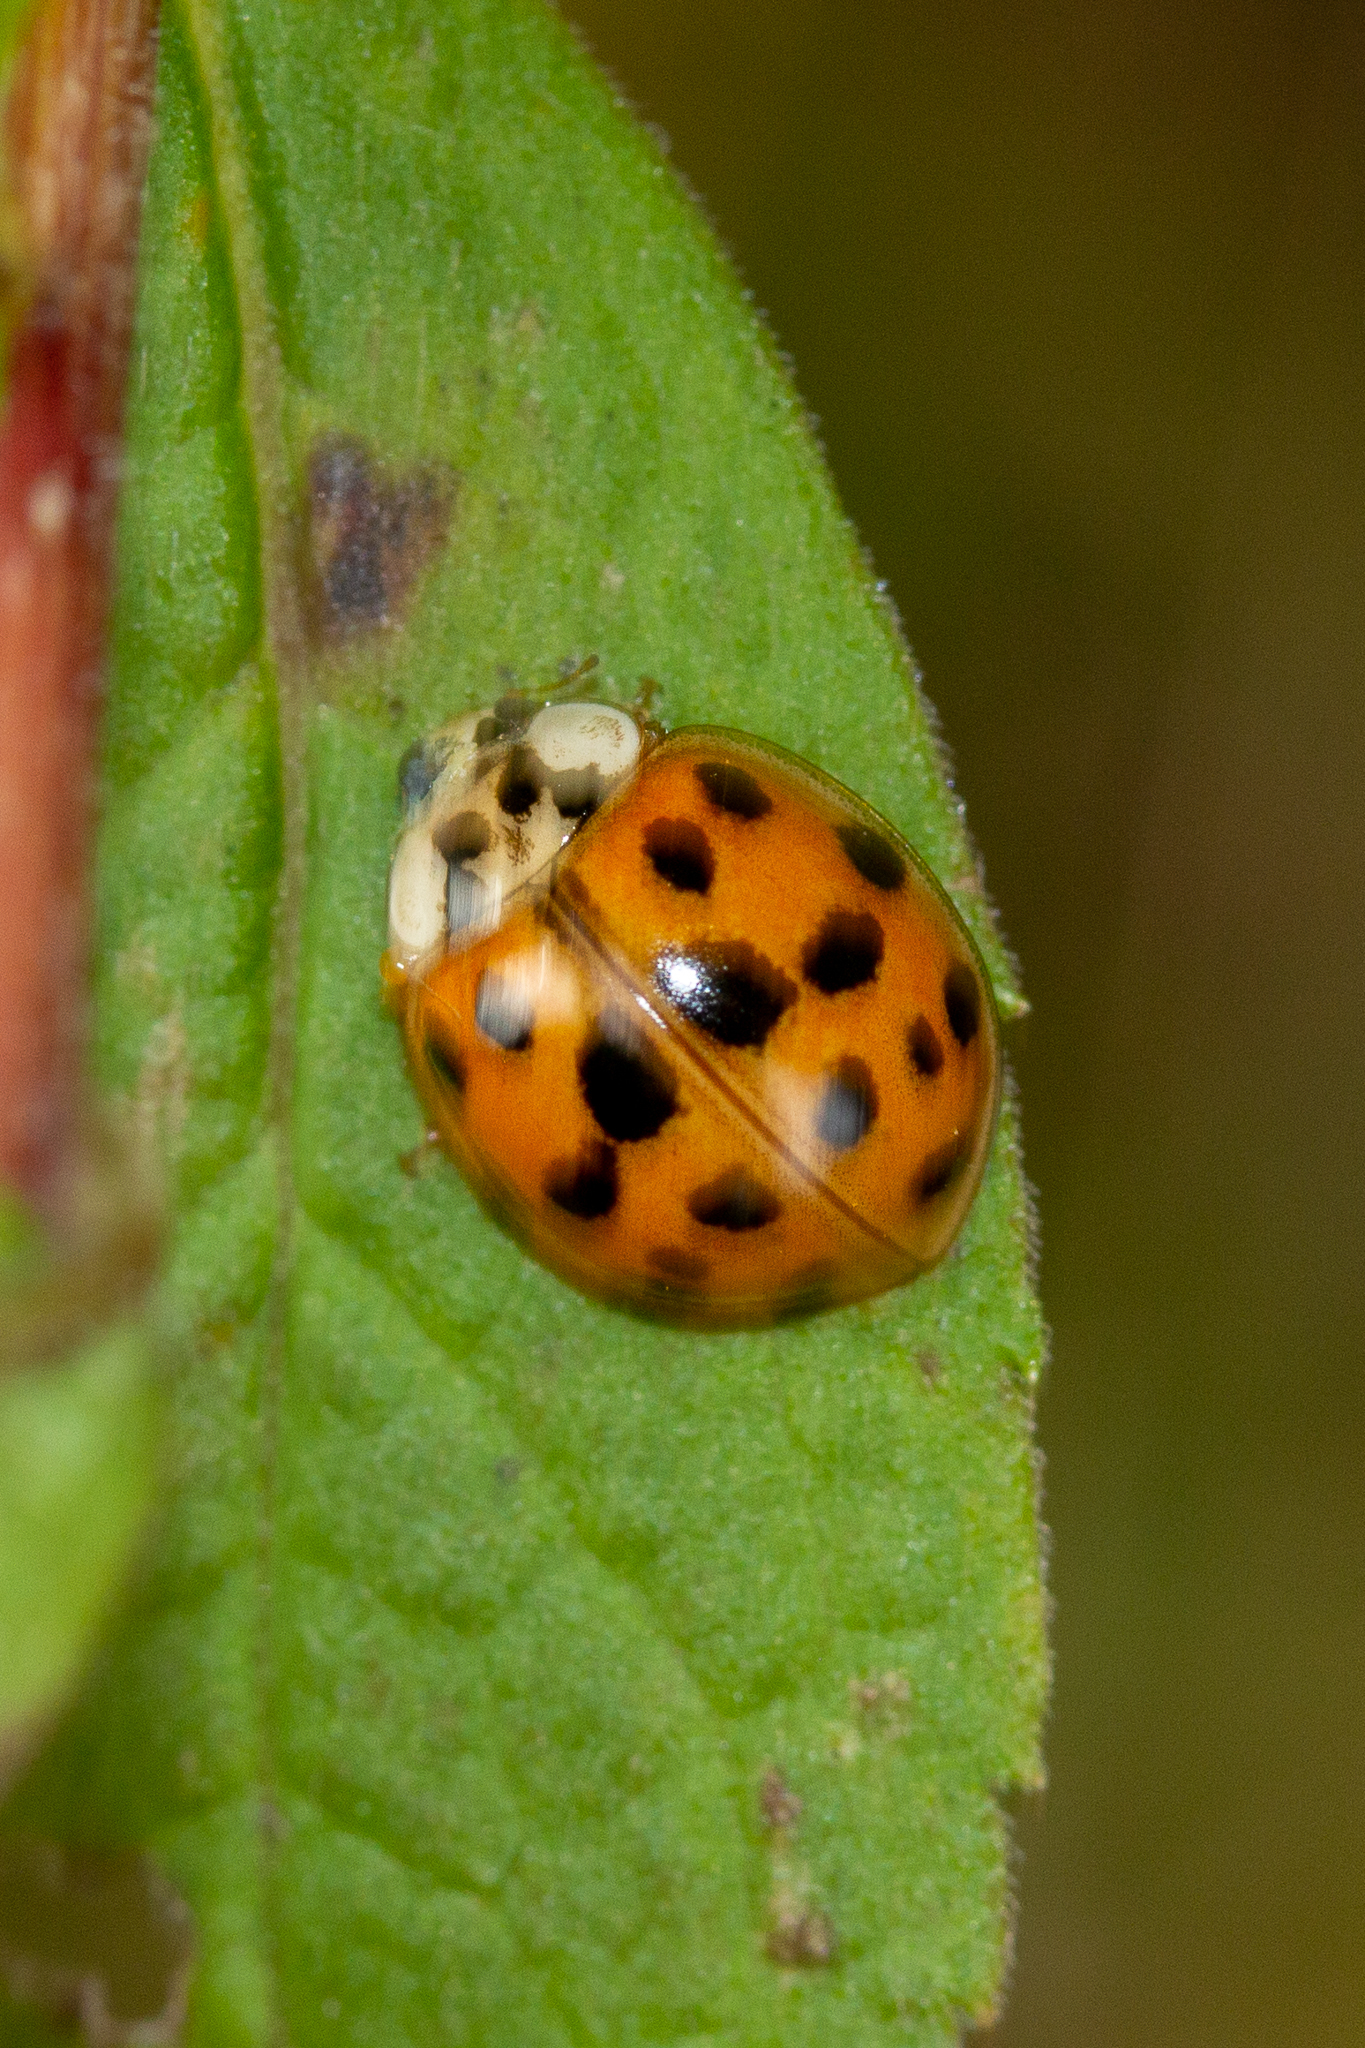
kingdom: Animalia
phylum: Arthropoda
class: Insecta
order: Coleoptera
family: Coccinellidae
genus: Harmonia
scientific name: Harmonia axyridis
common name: Harlequin ladybird
